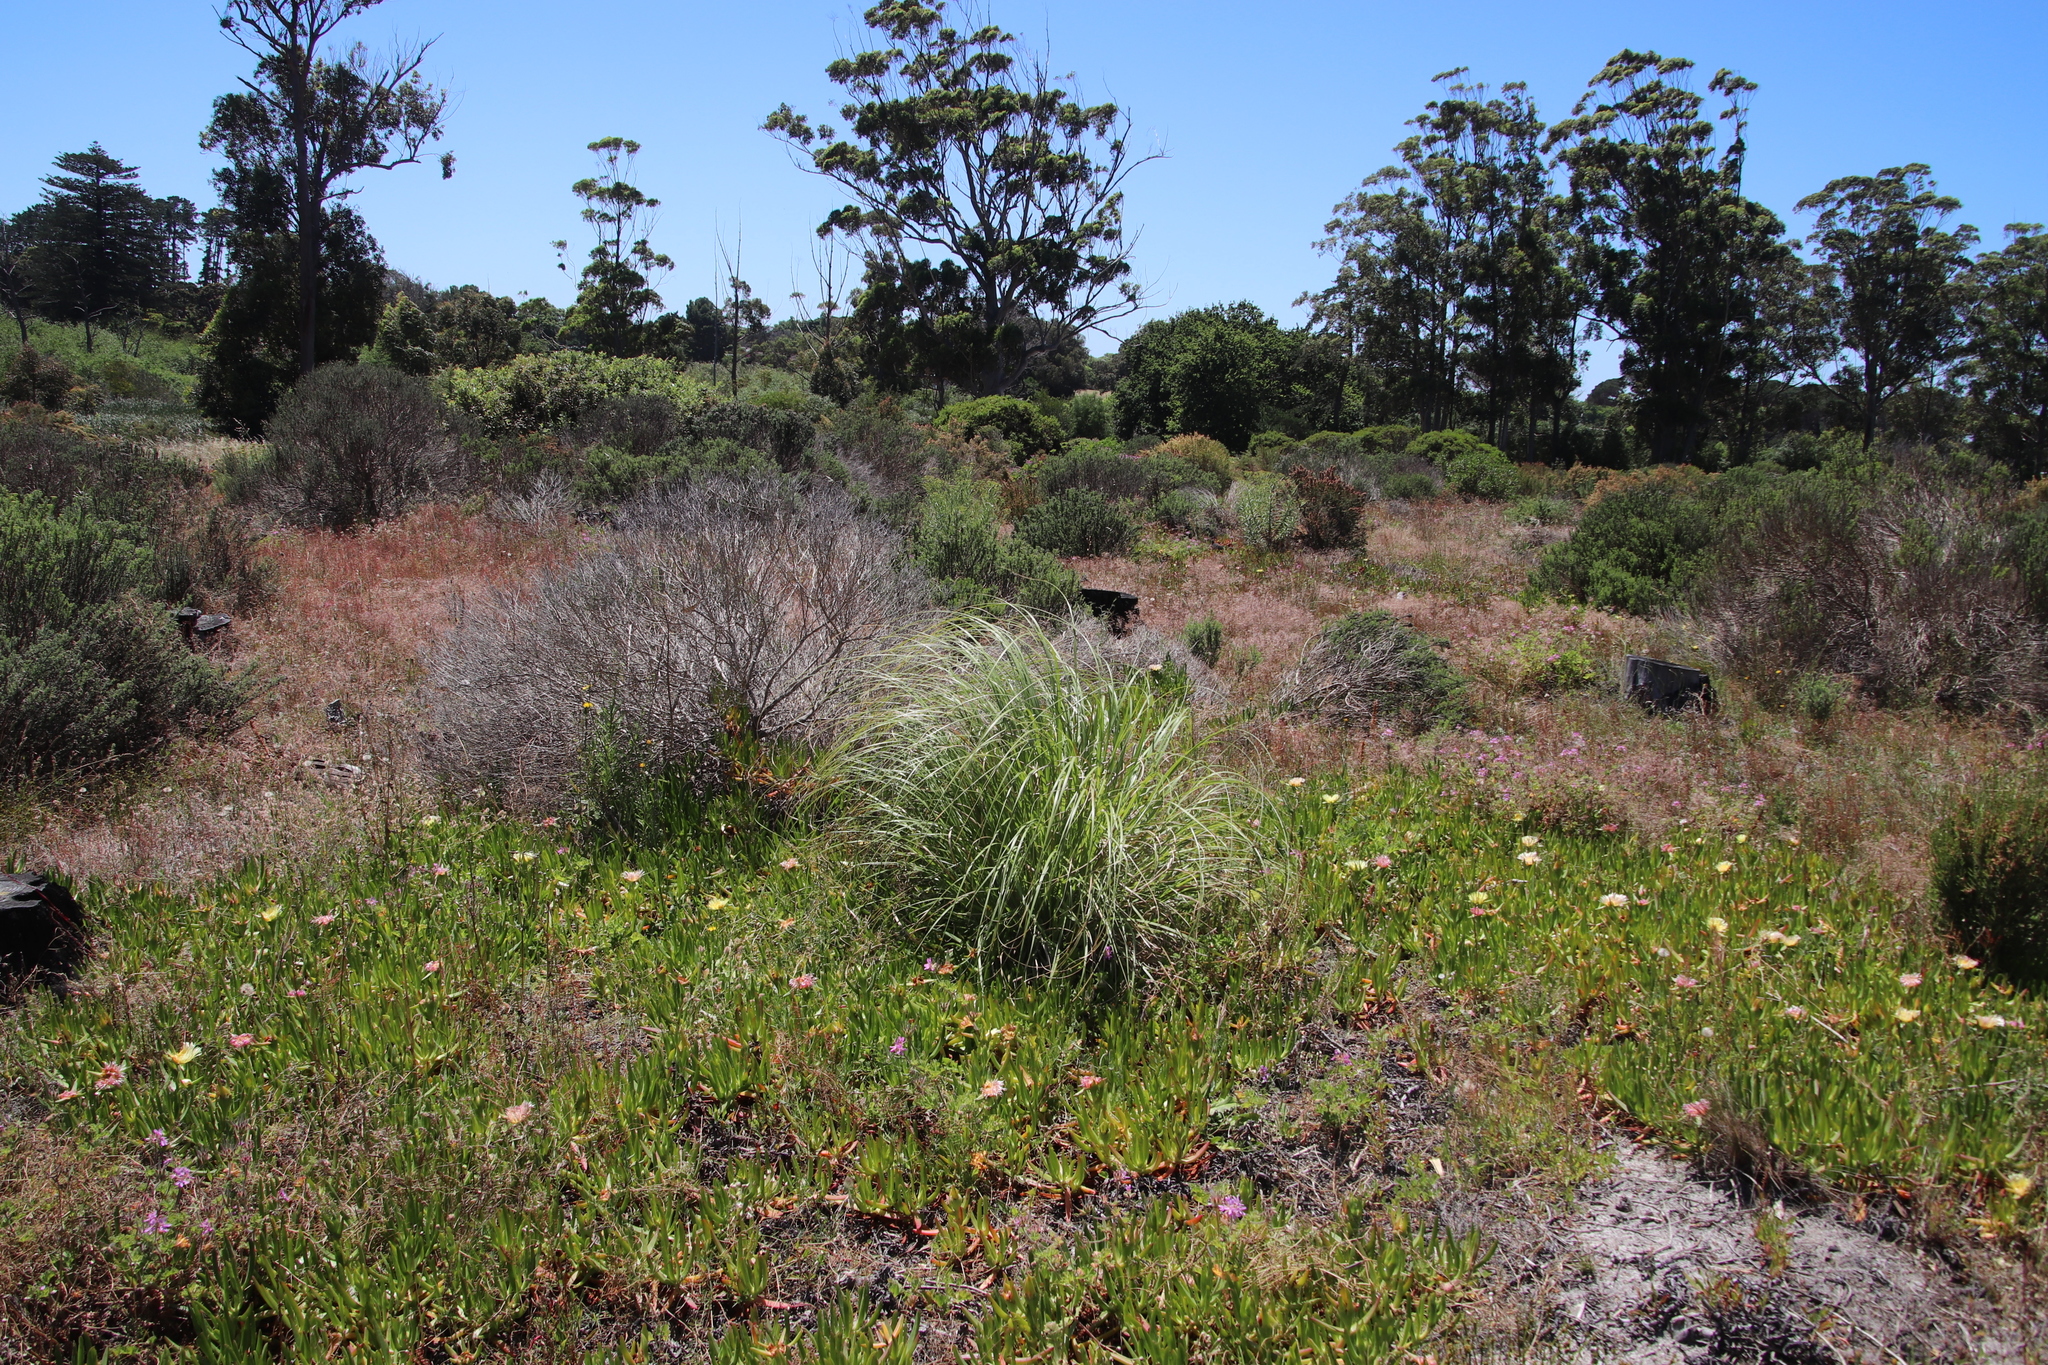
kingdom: Plantae
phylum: Tracheophyta
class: Liliopsida
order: Poales
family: Poaceae
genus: Cortaderia
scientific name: Cortaderia selloana
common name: Uruguayan pampas grass
